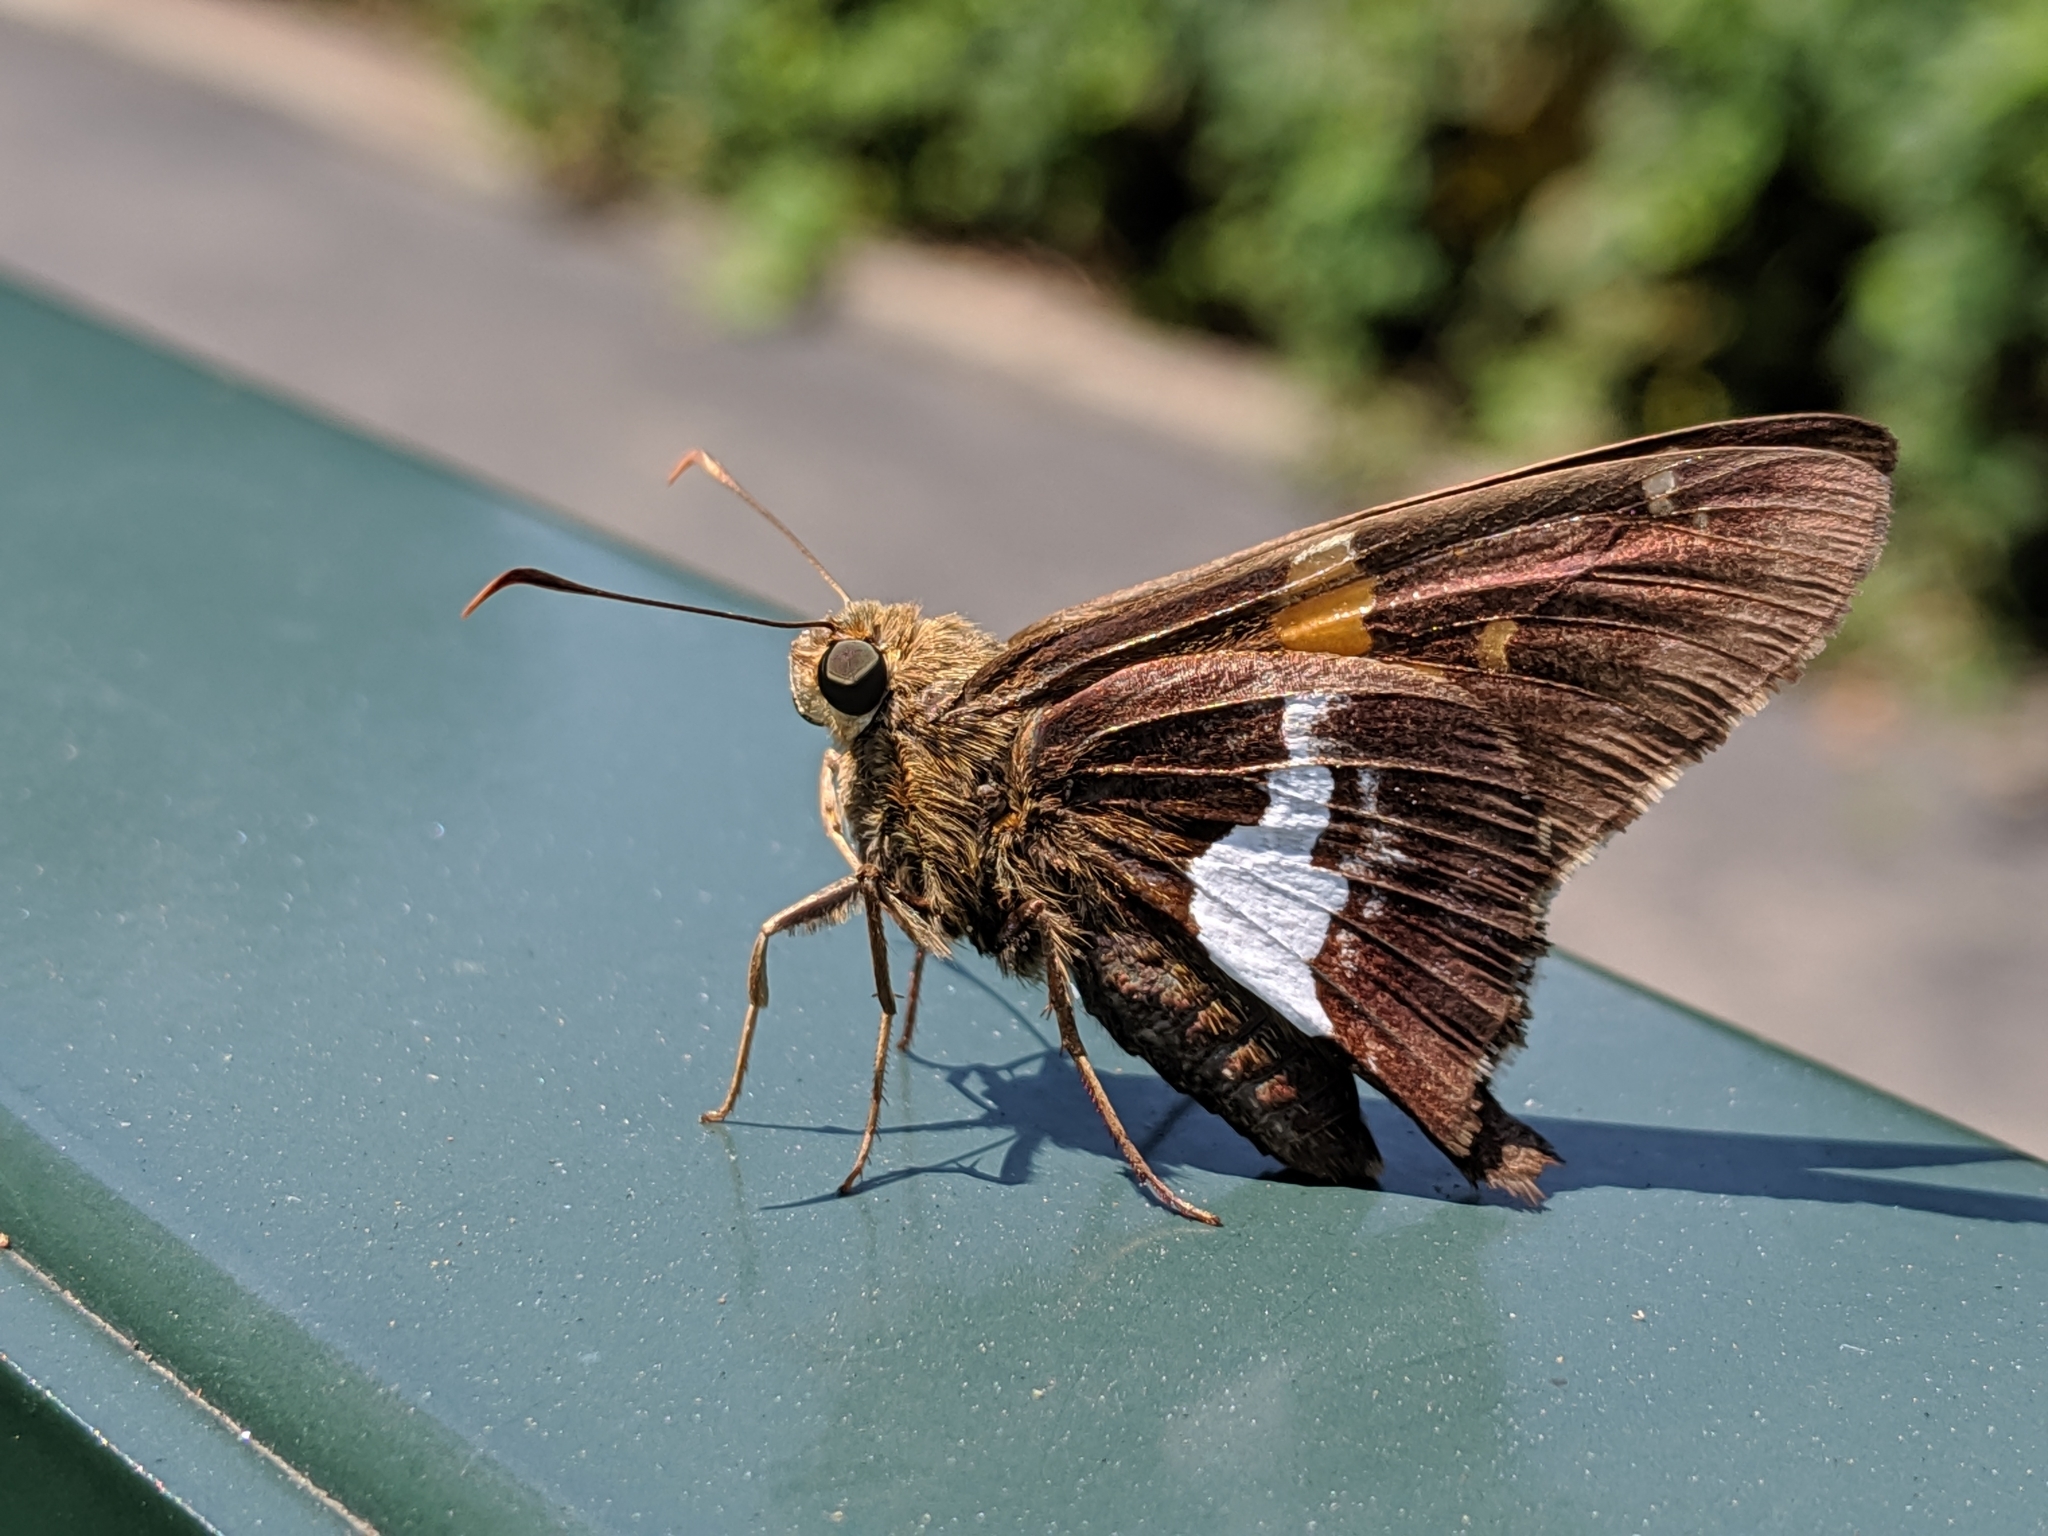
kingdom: Animalia
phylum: Arthropoda
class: Insecta
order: Lepidoptera
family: Hesperiidae
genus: Epargyreus
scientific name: Epargyreus clarus
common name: Silver-spotted skipper
